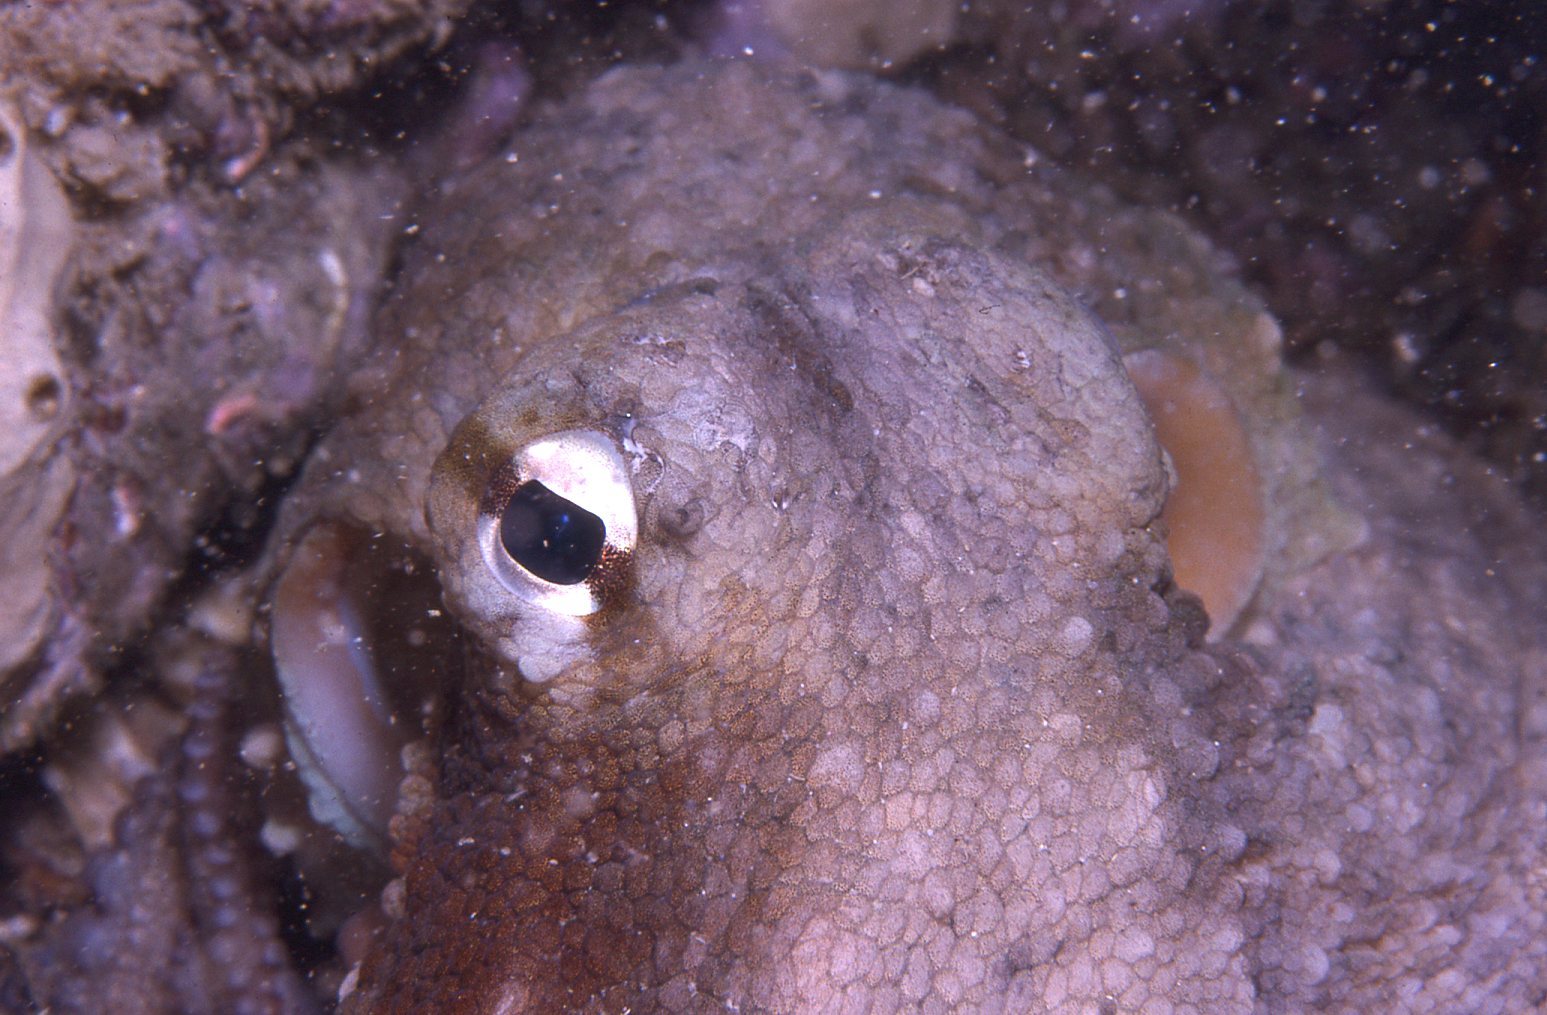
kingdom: Animalia
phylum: Mollusca
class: Cephalopoda
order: Octopoda
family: Octopodidae
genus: Octopus
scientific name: Octopus tetricus
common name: Sydney octopus
